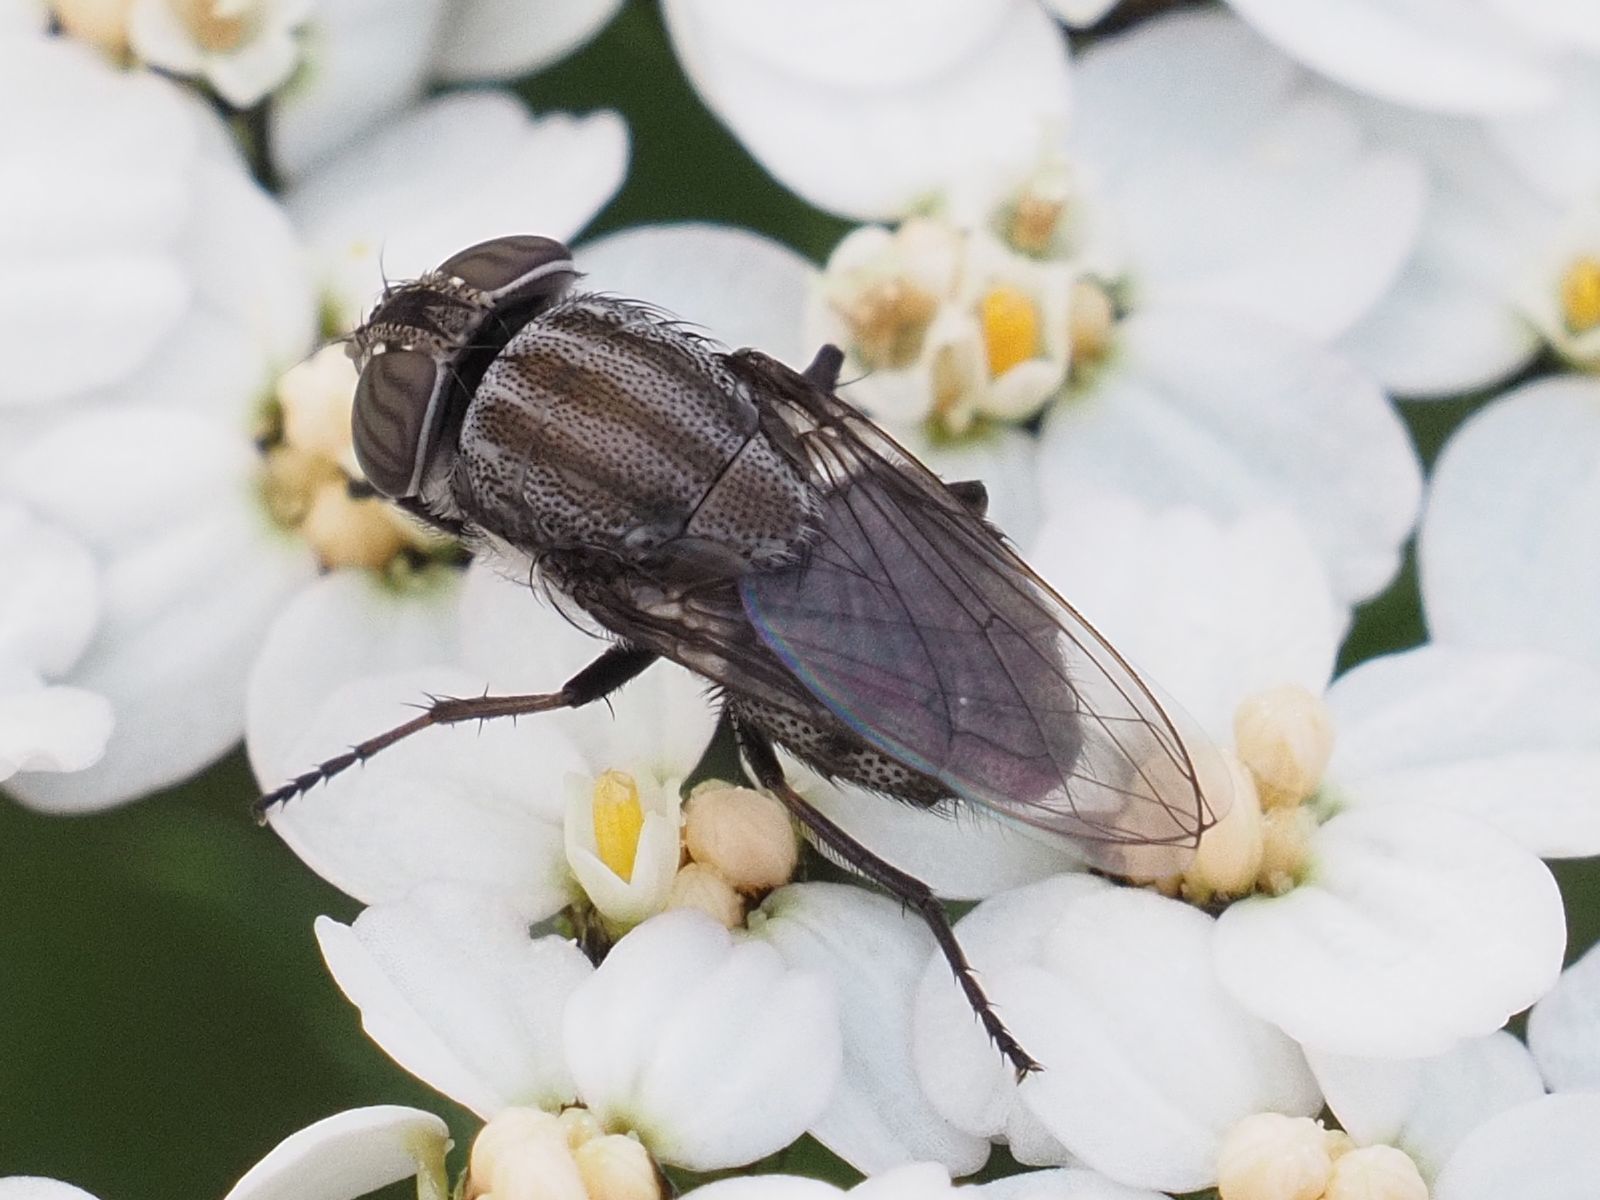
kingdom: Animalia
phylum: Arthropoda
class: Insecta
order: Diptera
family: Calliphoridae
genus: Stomorhina
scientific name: Stomorhina lunata
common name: Locust blowfly
